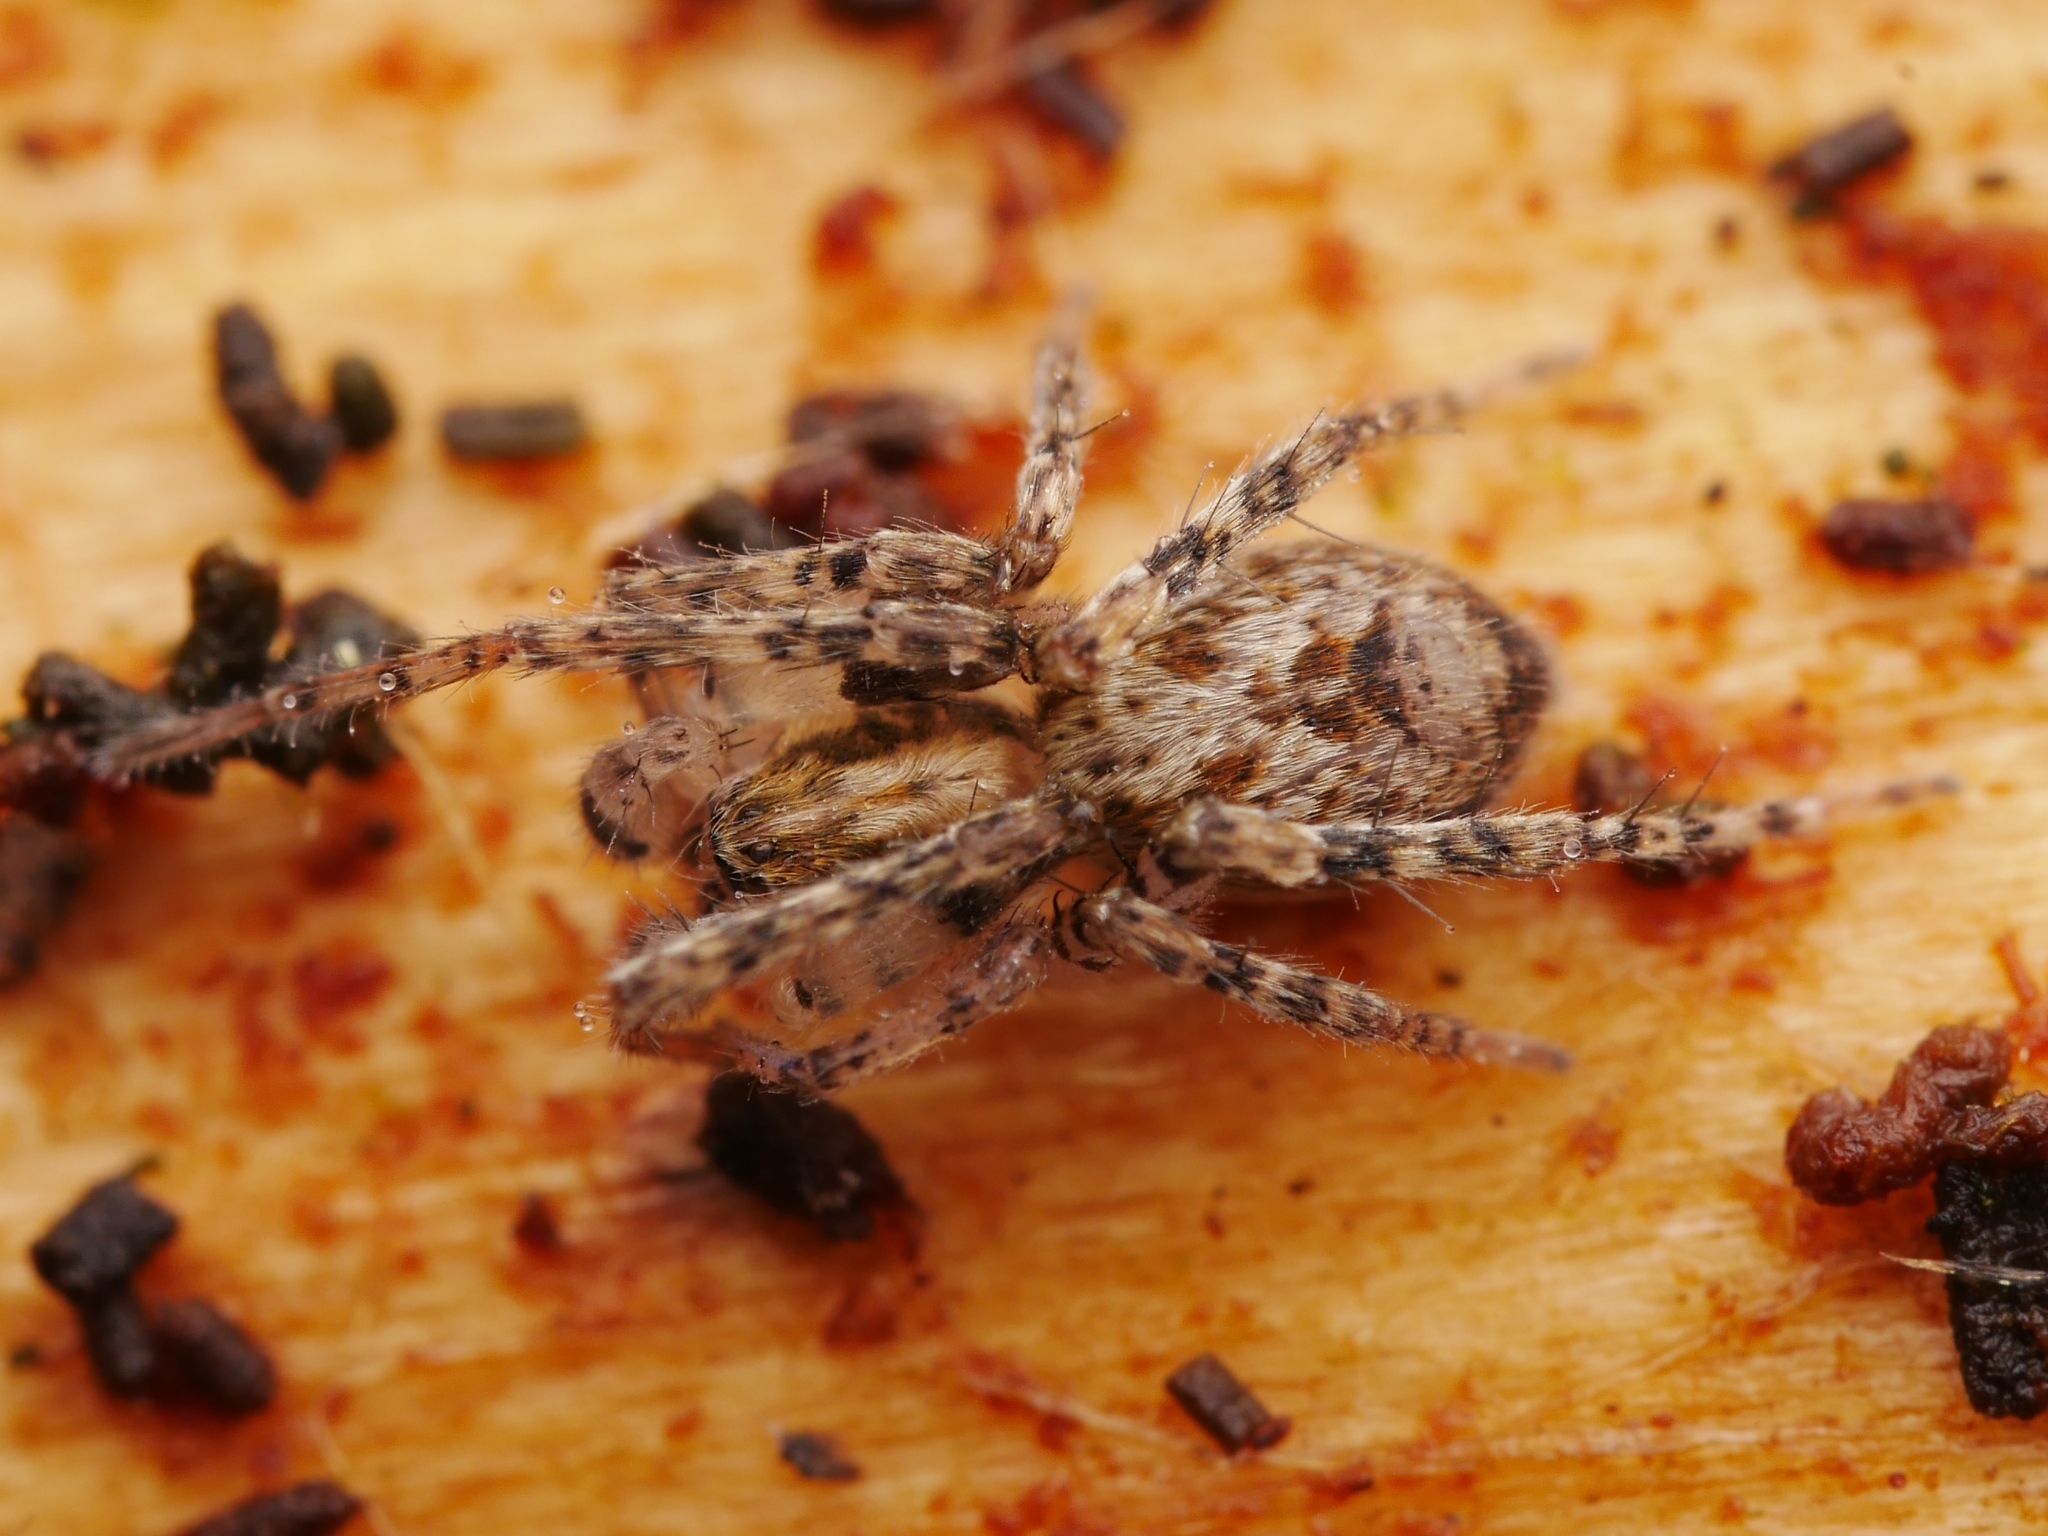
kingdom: Animalia
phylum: Arthropoda
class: Arachnida
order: Araneae
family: Anyphaenidae
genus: Anyphaena
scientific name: Anyphaena accentuata
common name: Buzzing spider
